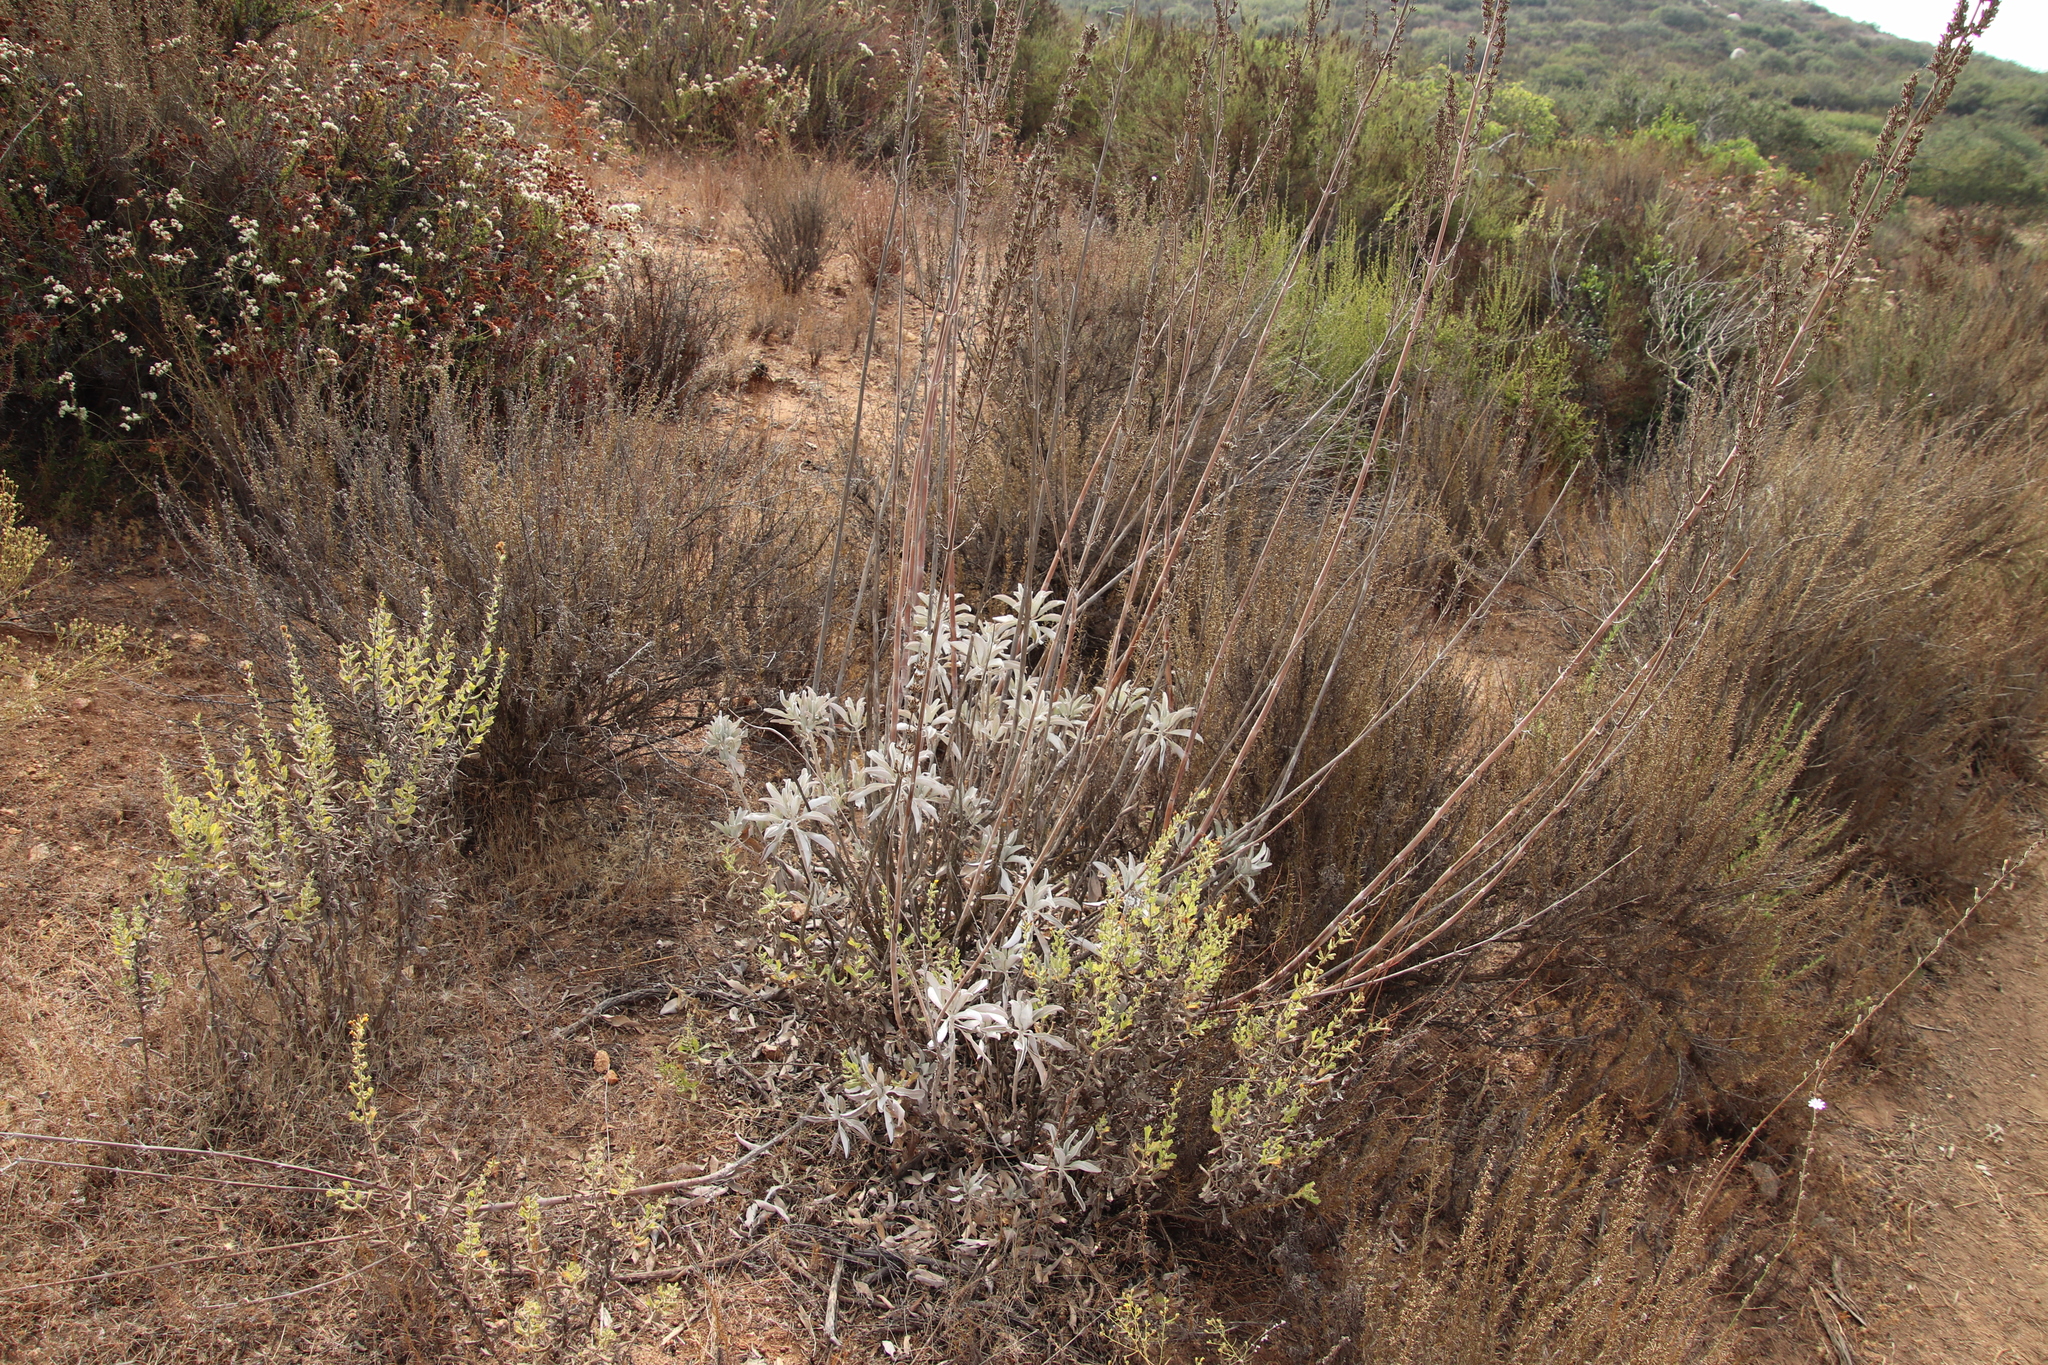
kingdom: Plantae
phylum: Tracheophyta
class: Magnoliopsida
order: Lamiales
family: Lamiaceae
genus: Salvia
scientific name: Salvia apiana
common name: White sage
